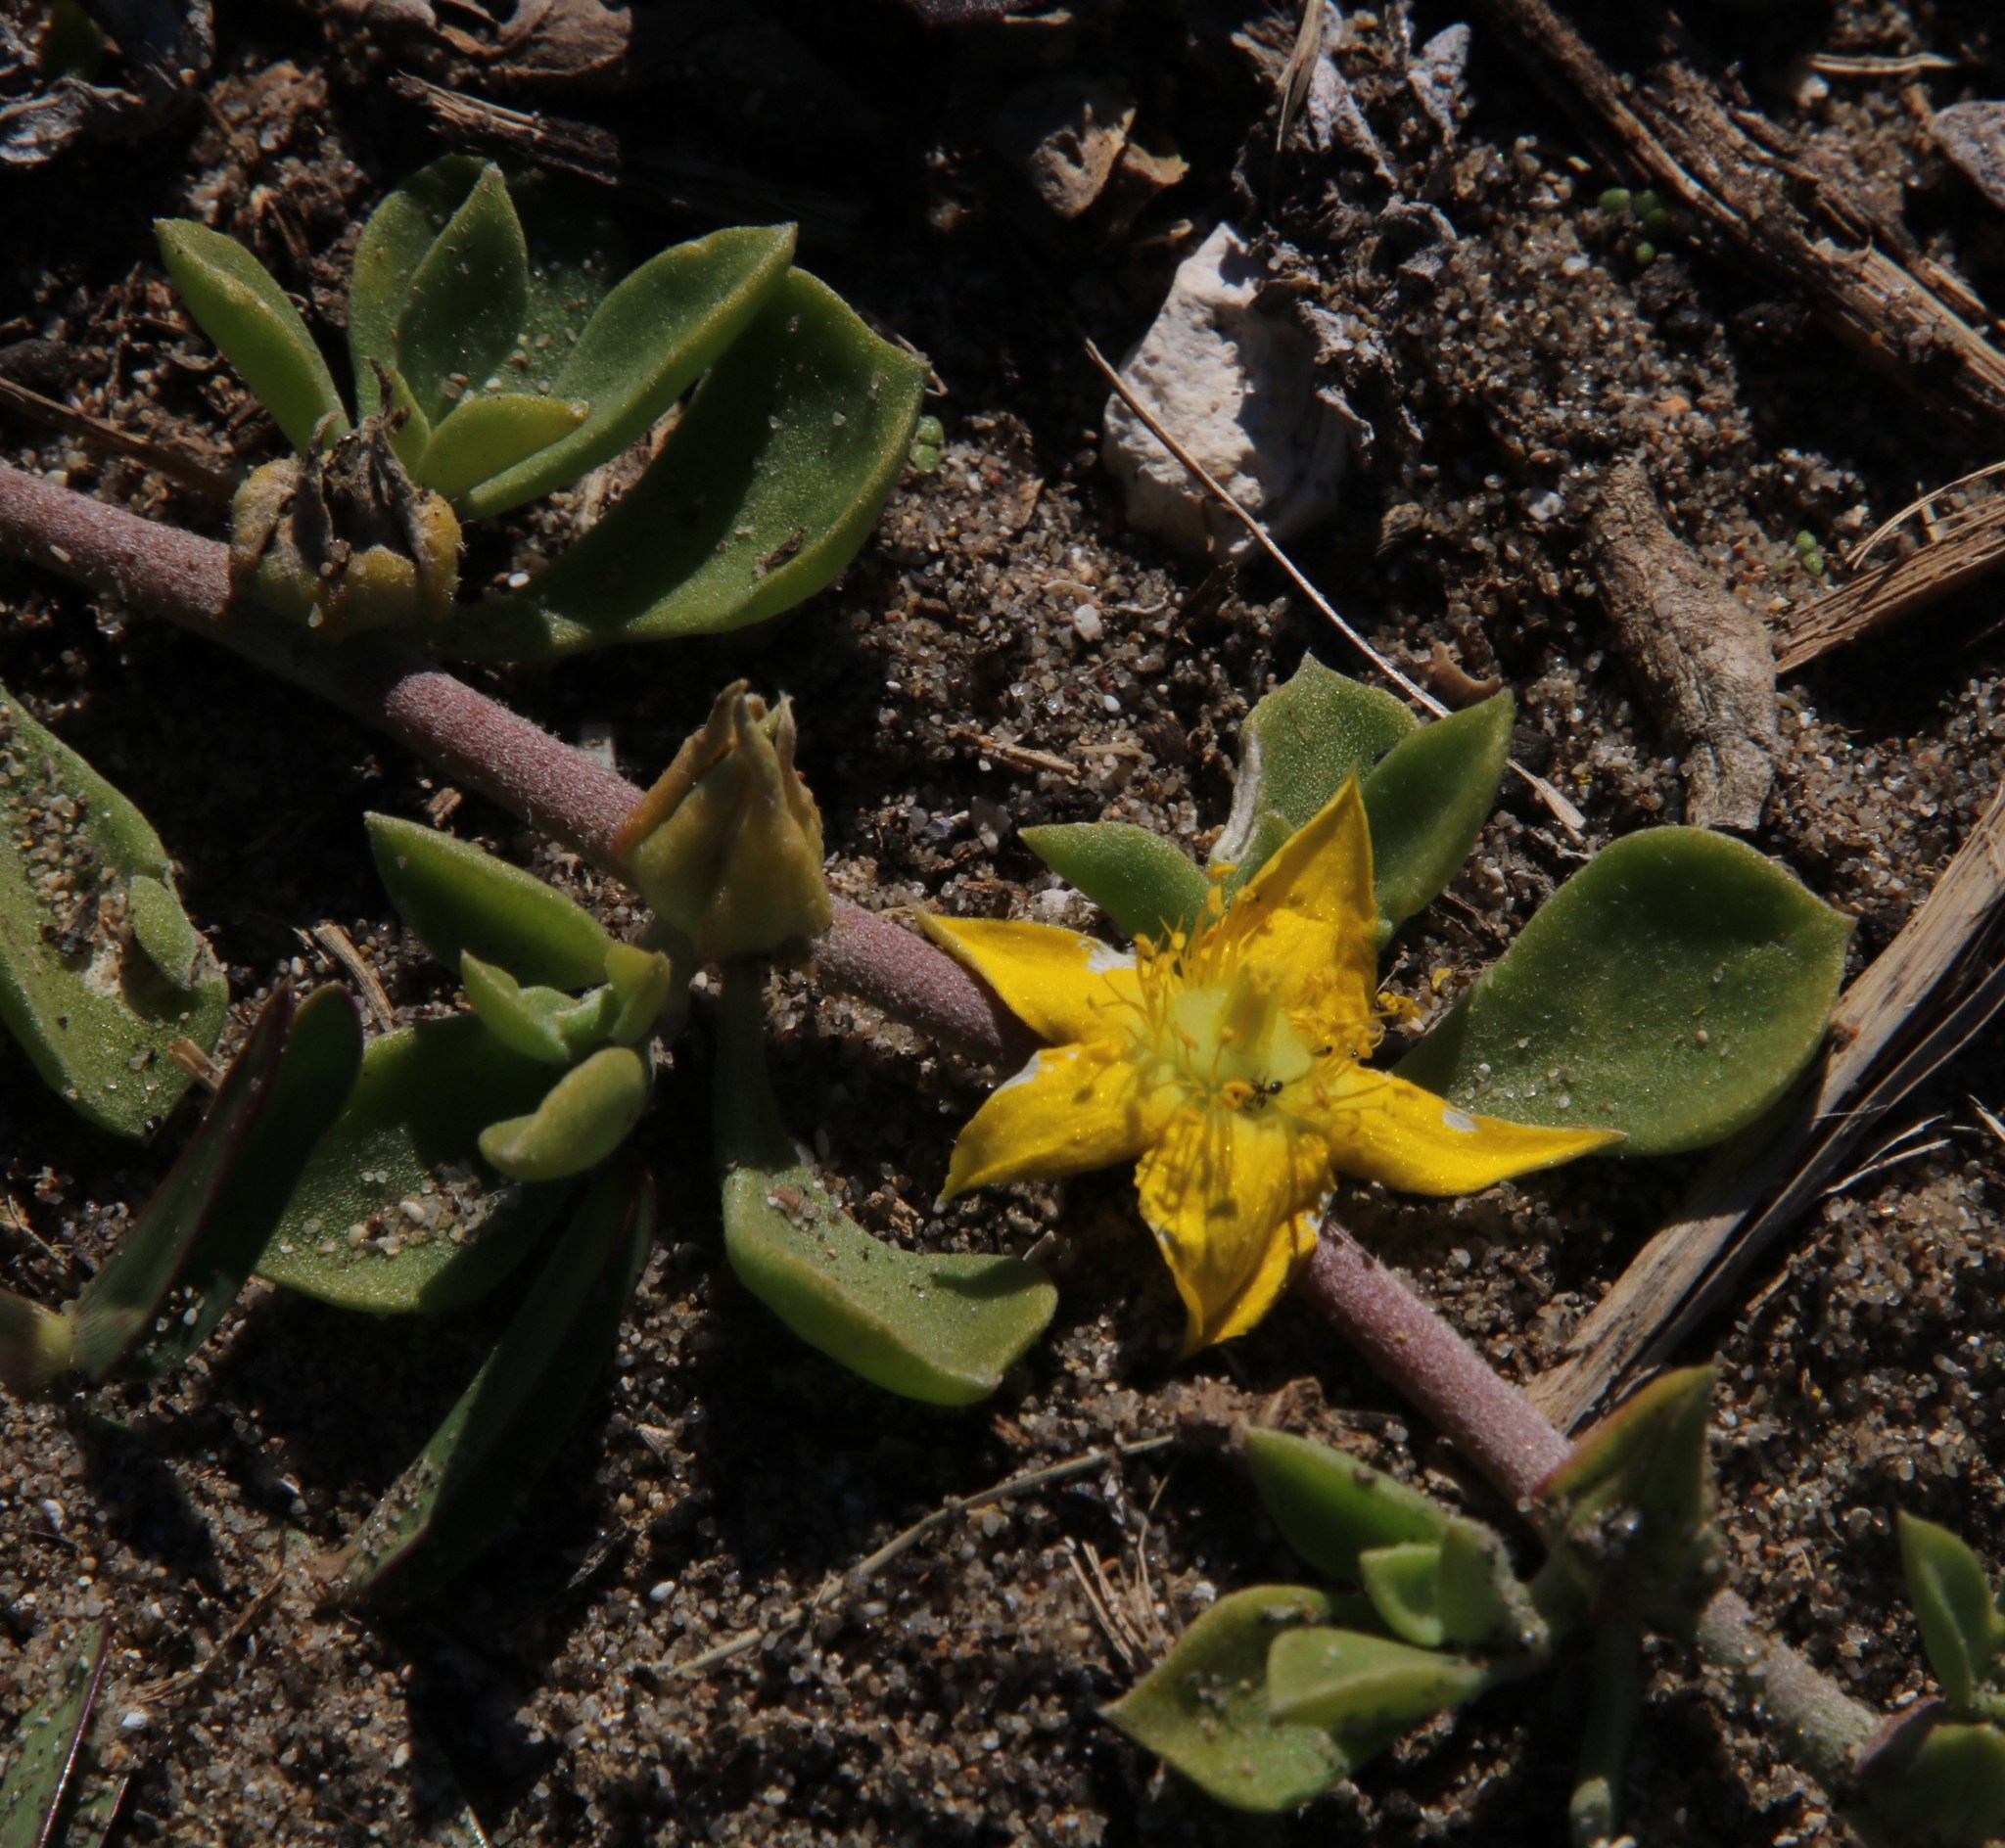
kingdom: Plantae
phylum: Tracheophyta
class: Magnoliopsida
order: Caryophyllales
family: Aizoaceae
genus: Aizoon
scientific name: Aizoon rigidum
